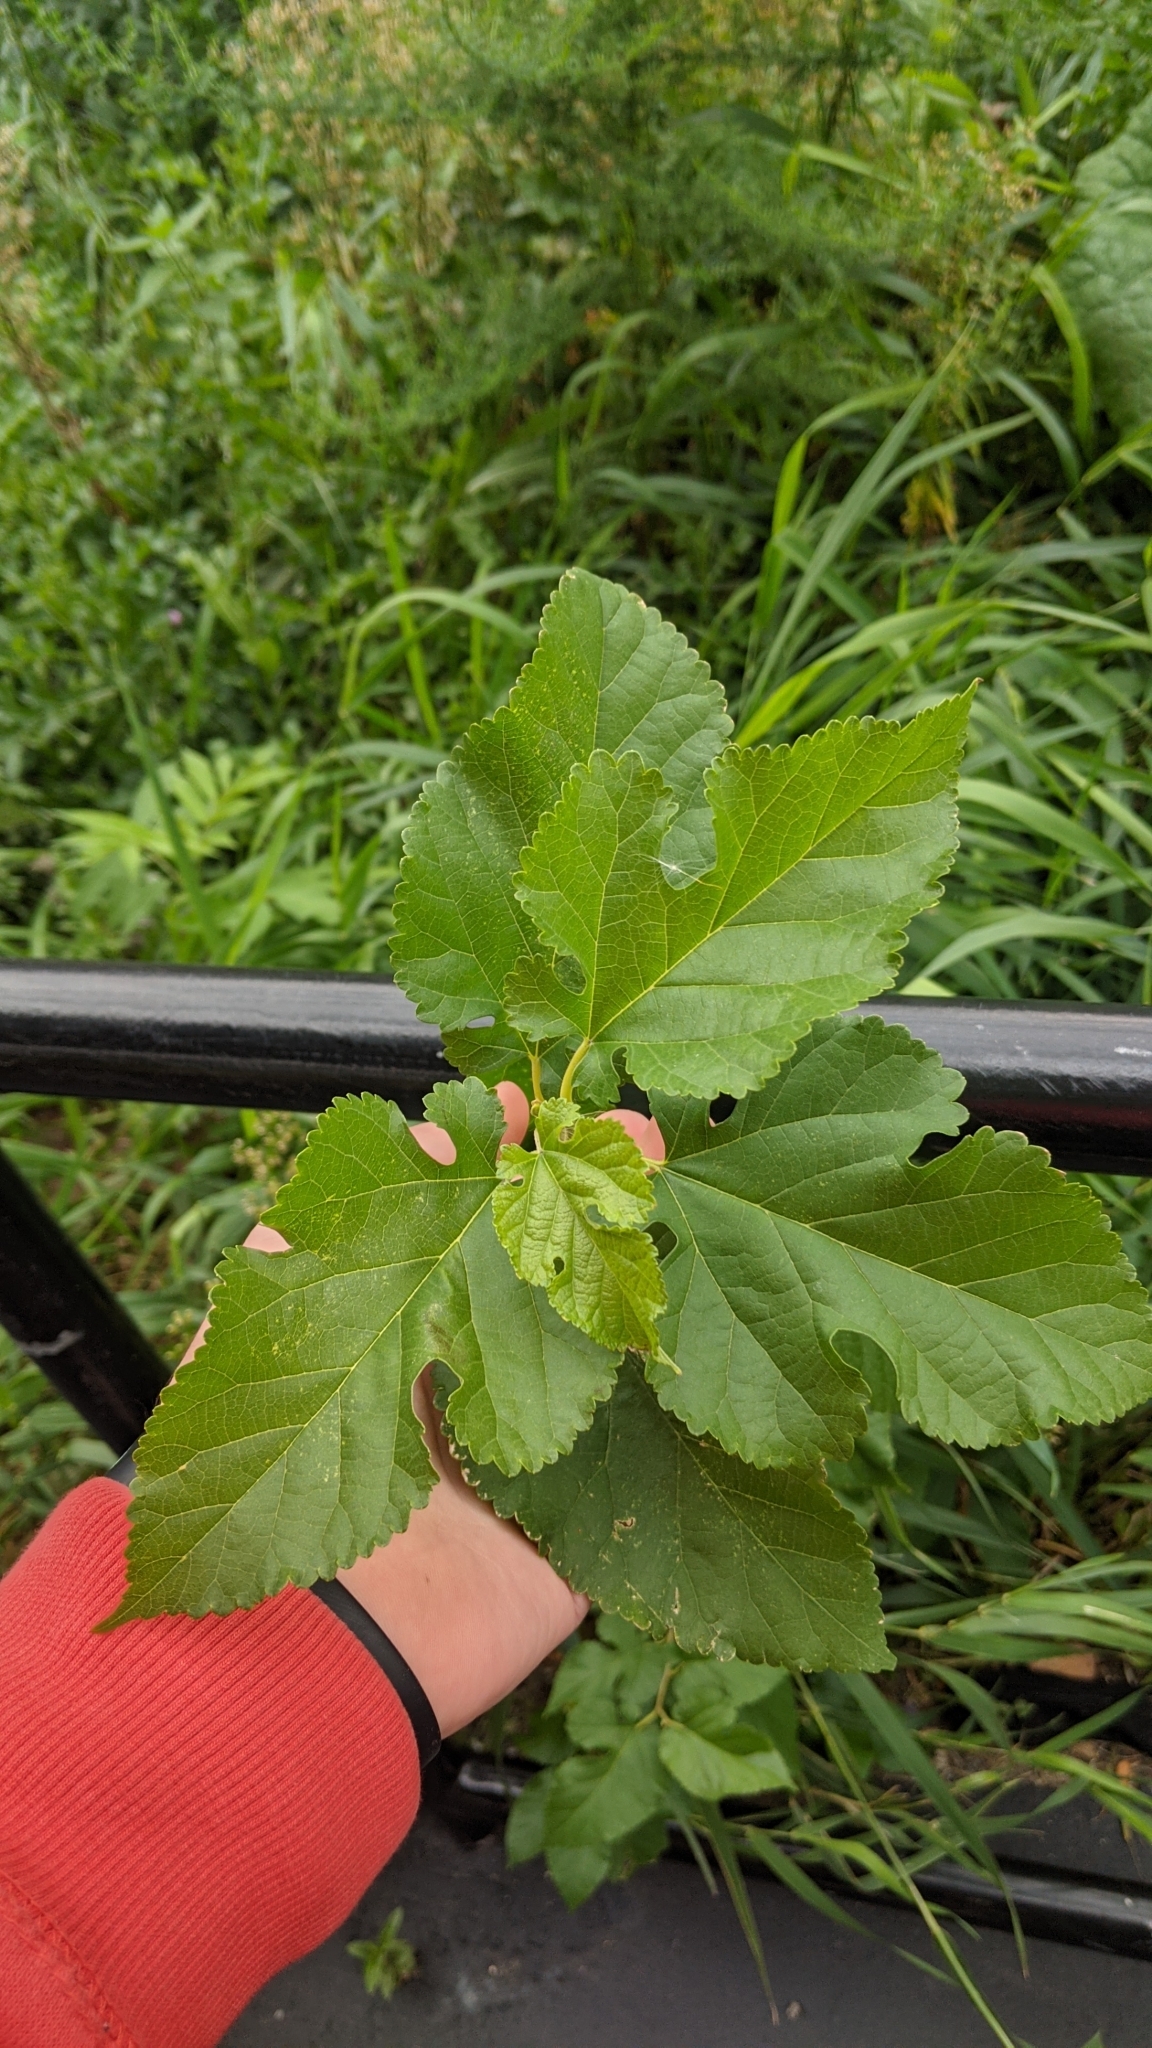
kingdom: Plantae
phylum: Tracheophyta
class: Magnoliopsida
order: Rosales
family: Moraceae
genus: Morus
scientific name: Morus alba
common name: White mulberry
